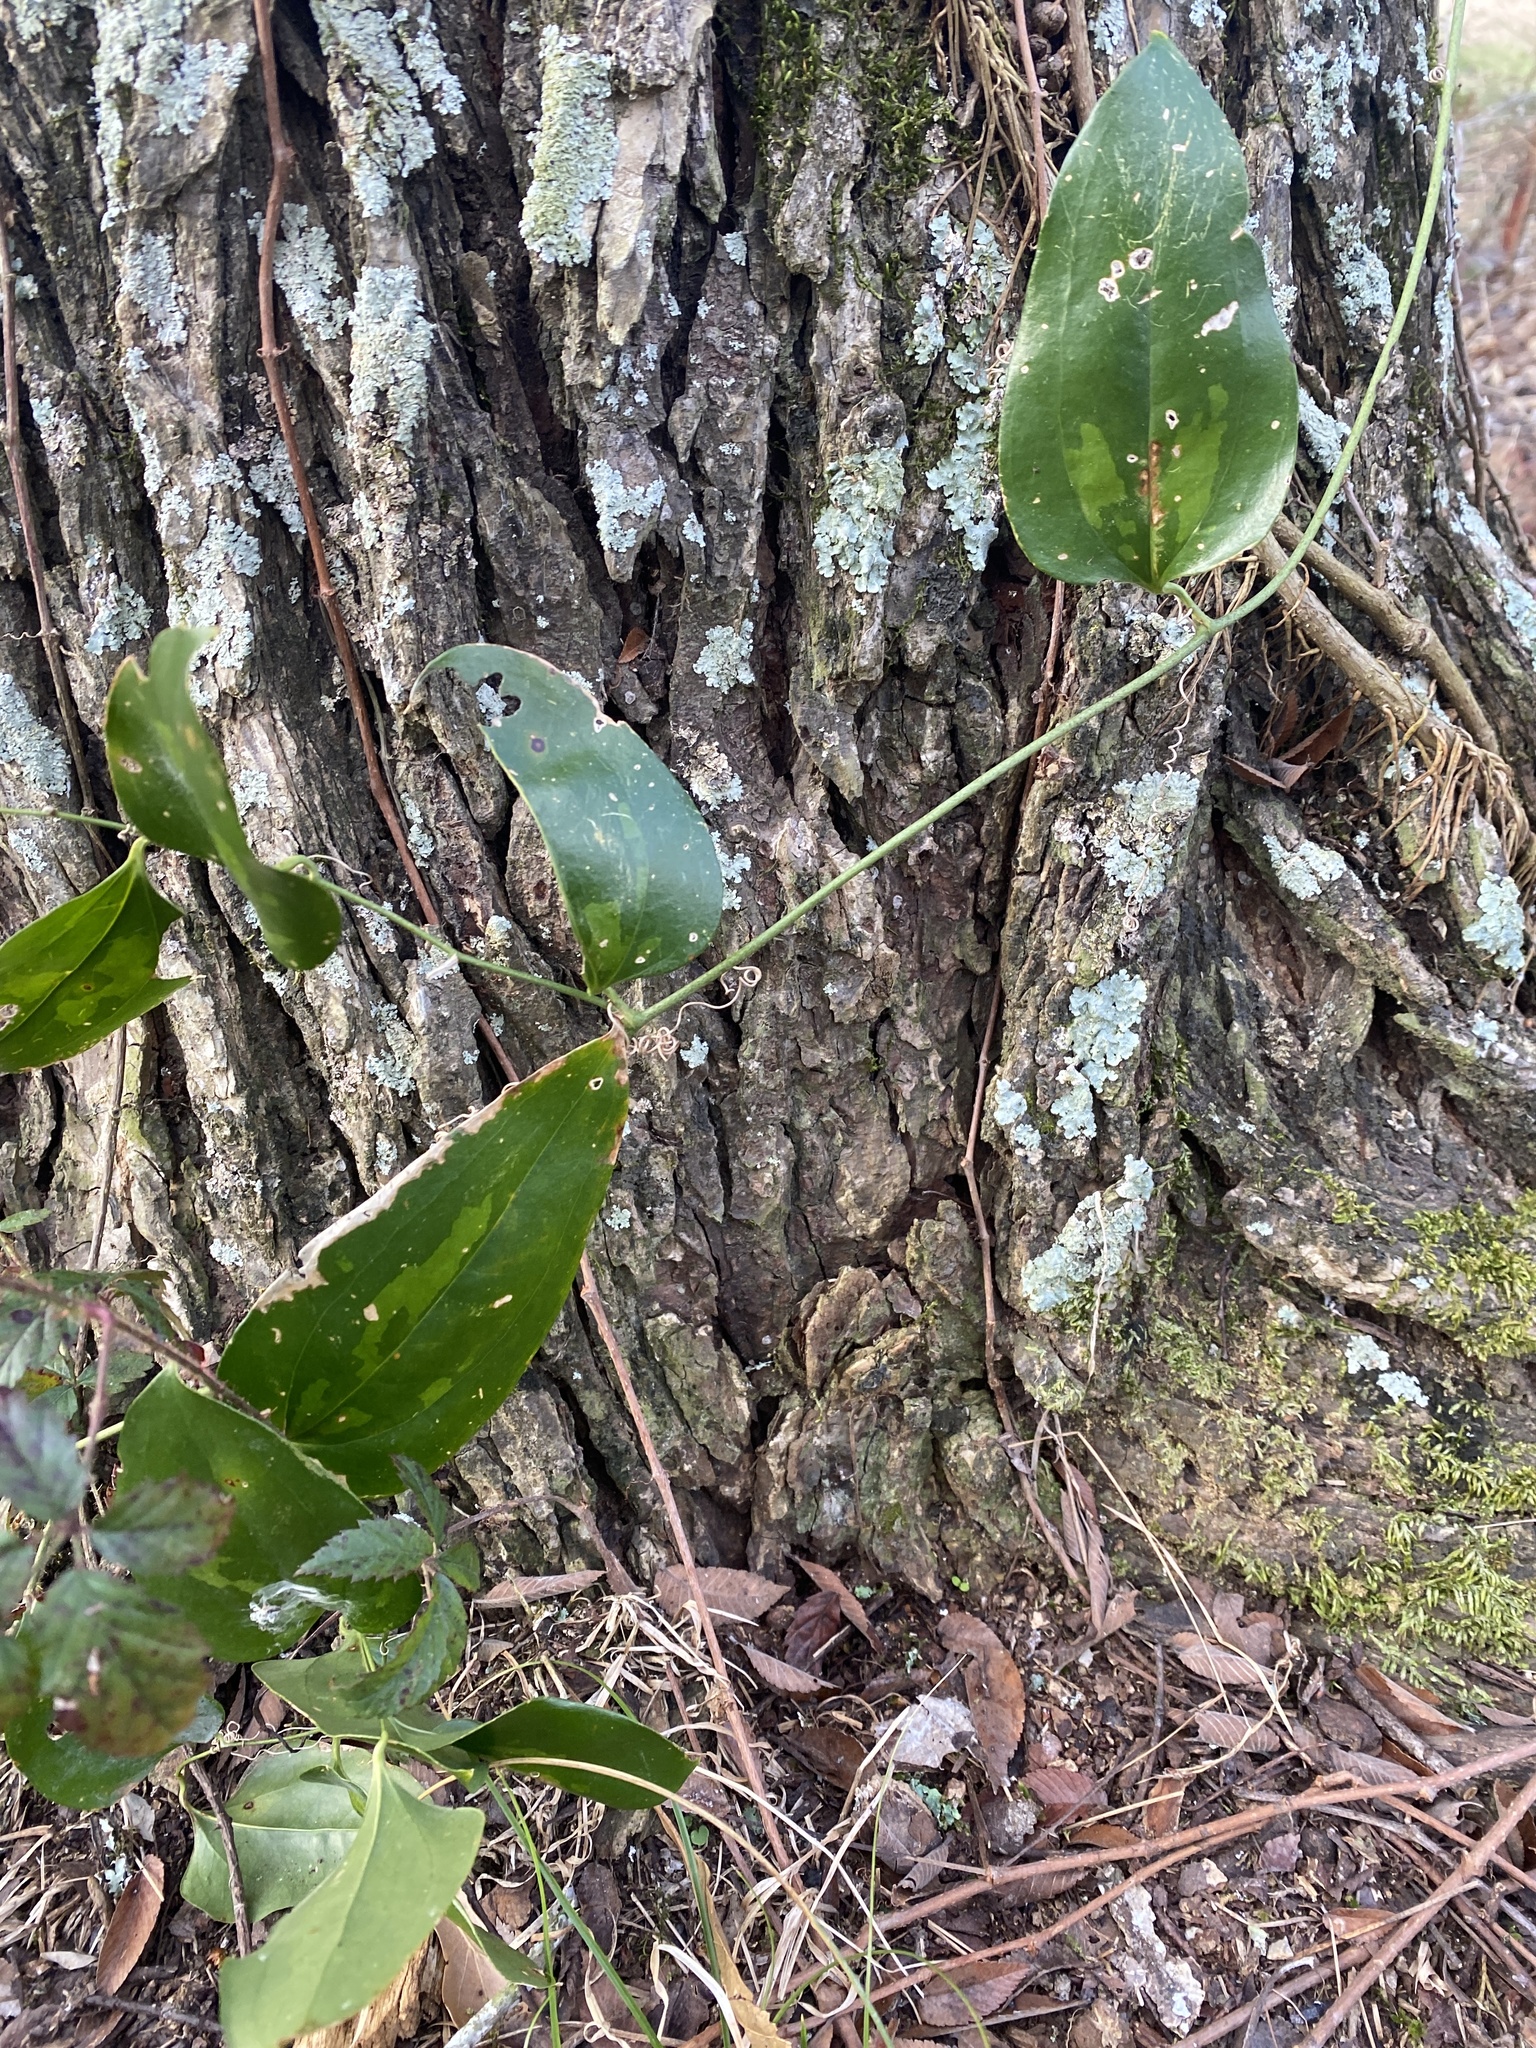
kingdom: Plantae
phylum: Tracheophyta
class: Liliopsida
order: Liliales
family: Smilacaceae
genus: Smilax
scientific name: Smilax maritima
